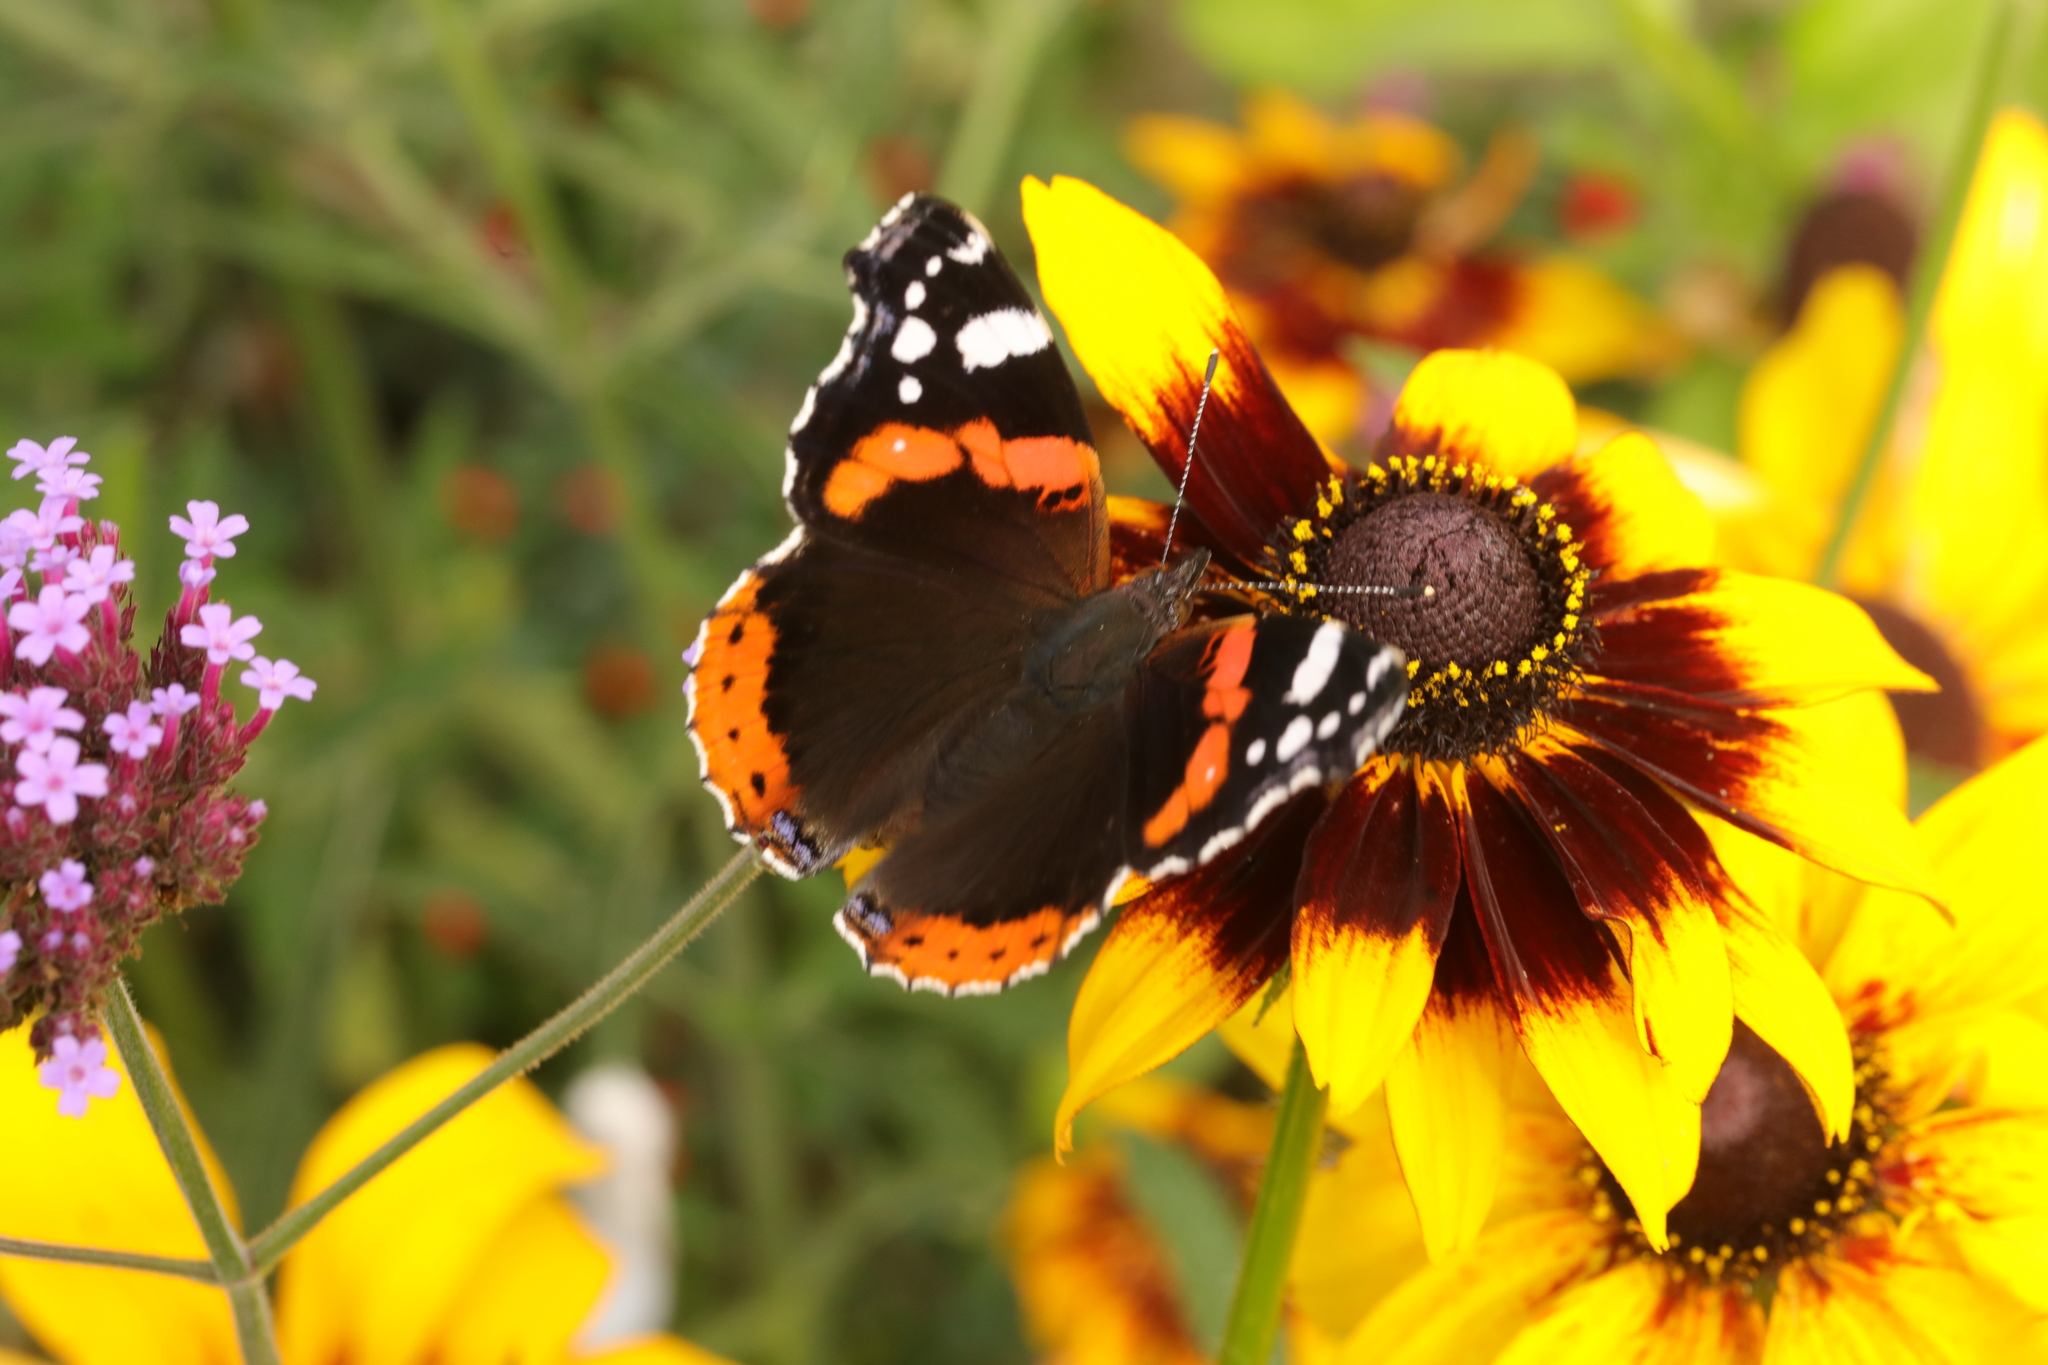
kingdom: Animalia
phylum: Arthropoda
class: Insecta
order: Lepidoptera
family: Nymphalidae
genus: Vanessa
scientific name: Vanessa atalanta
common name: Red admiral
